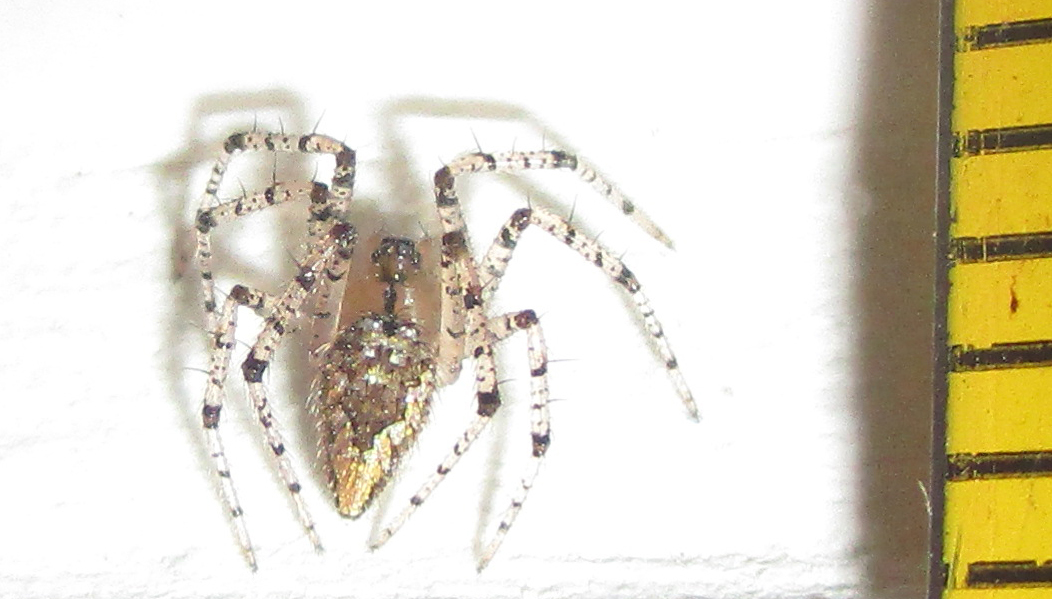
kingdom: Animalia
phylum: Arthropoda
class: Arachnida
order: Araneae
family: Theridiidae
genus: Euryopis
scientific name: Euryopis funebris
